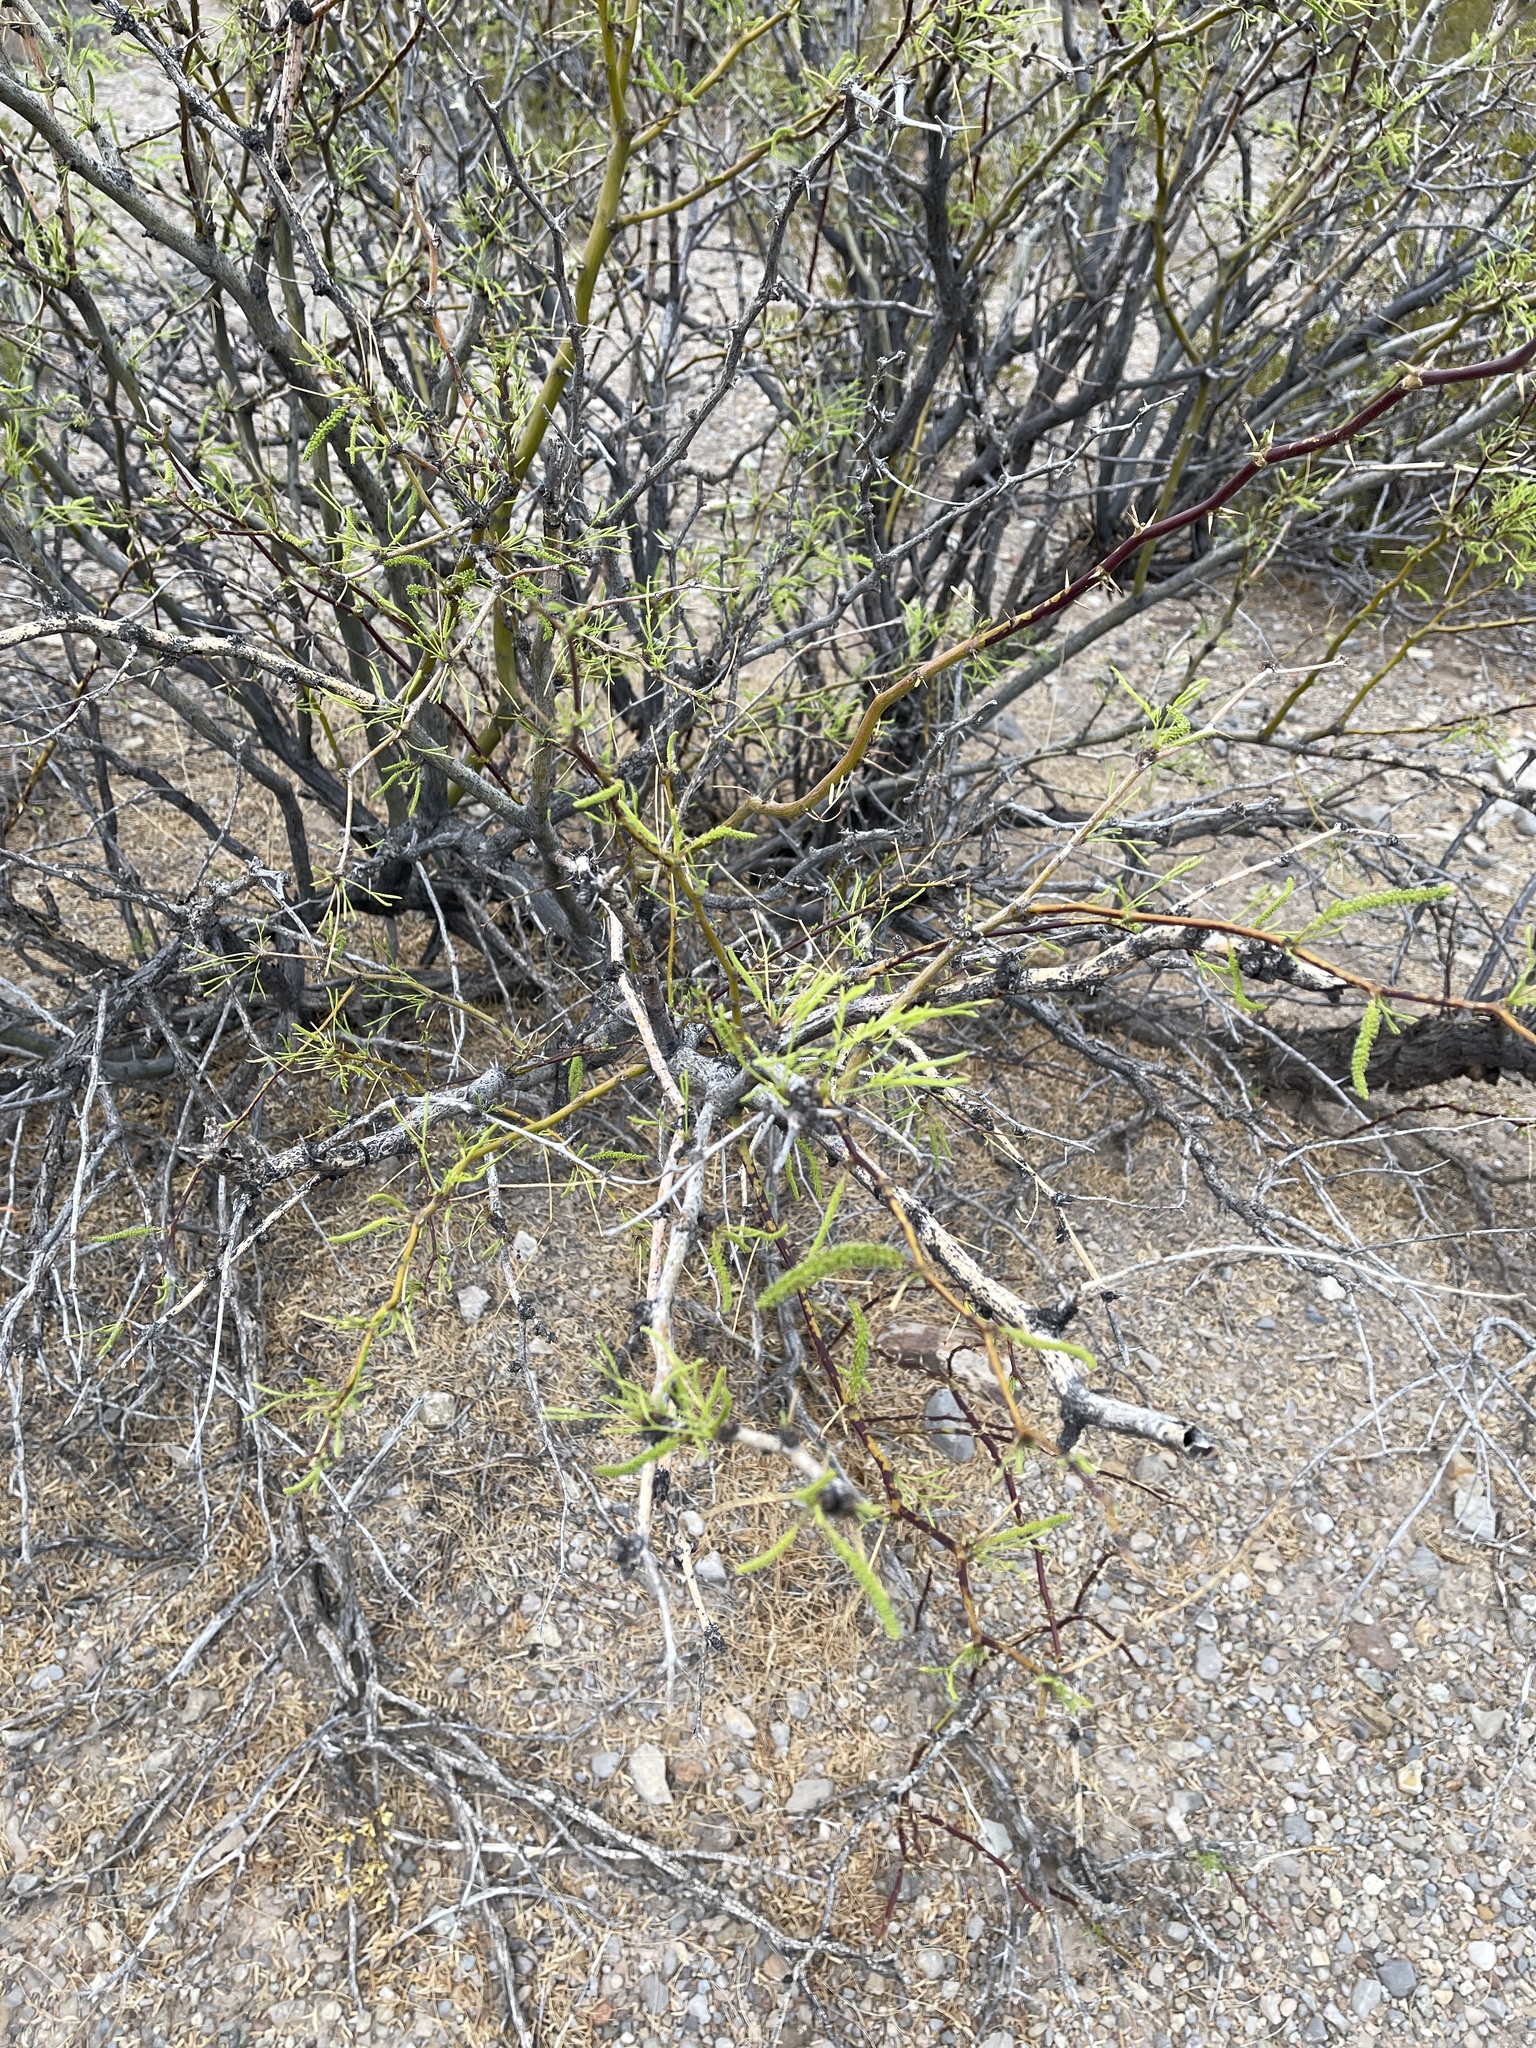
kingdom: Plantae
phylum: Tracheophyta
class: Magnoliopsida
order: Fabales
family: Fabaceae
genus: Prosopis
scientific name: Prosopis glandulosa
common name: Honey mesquite
